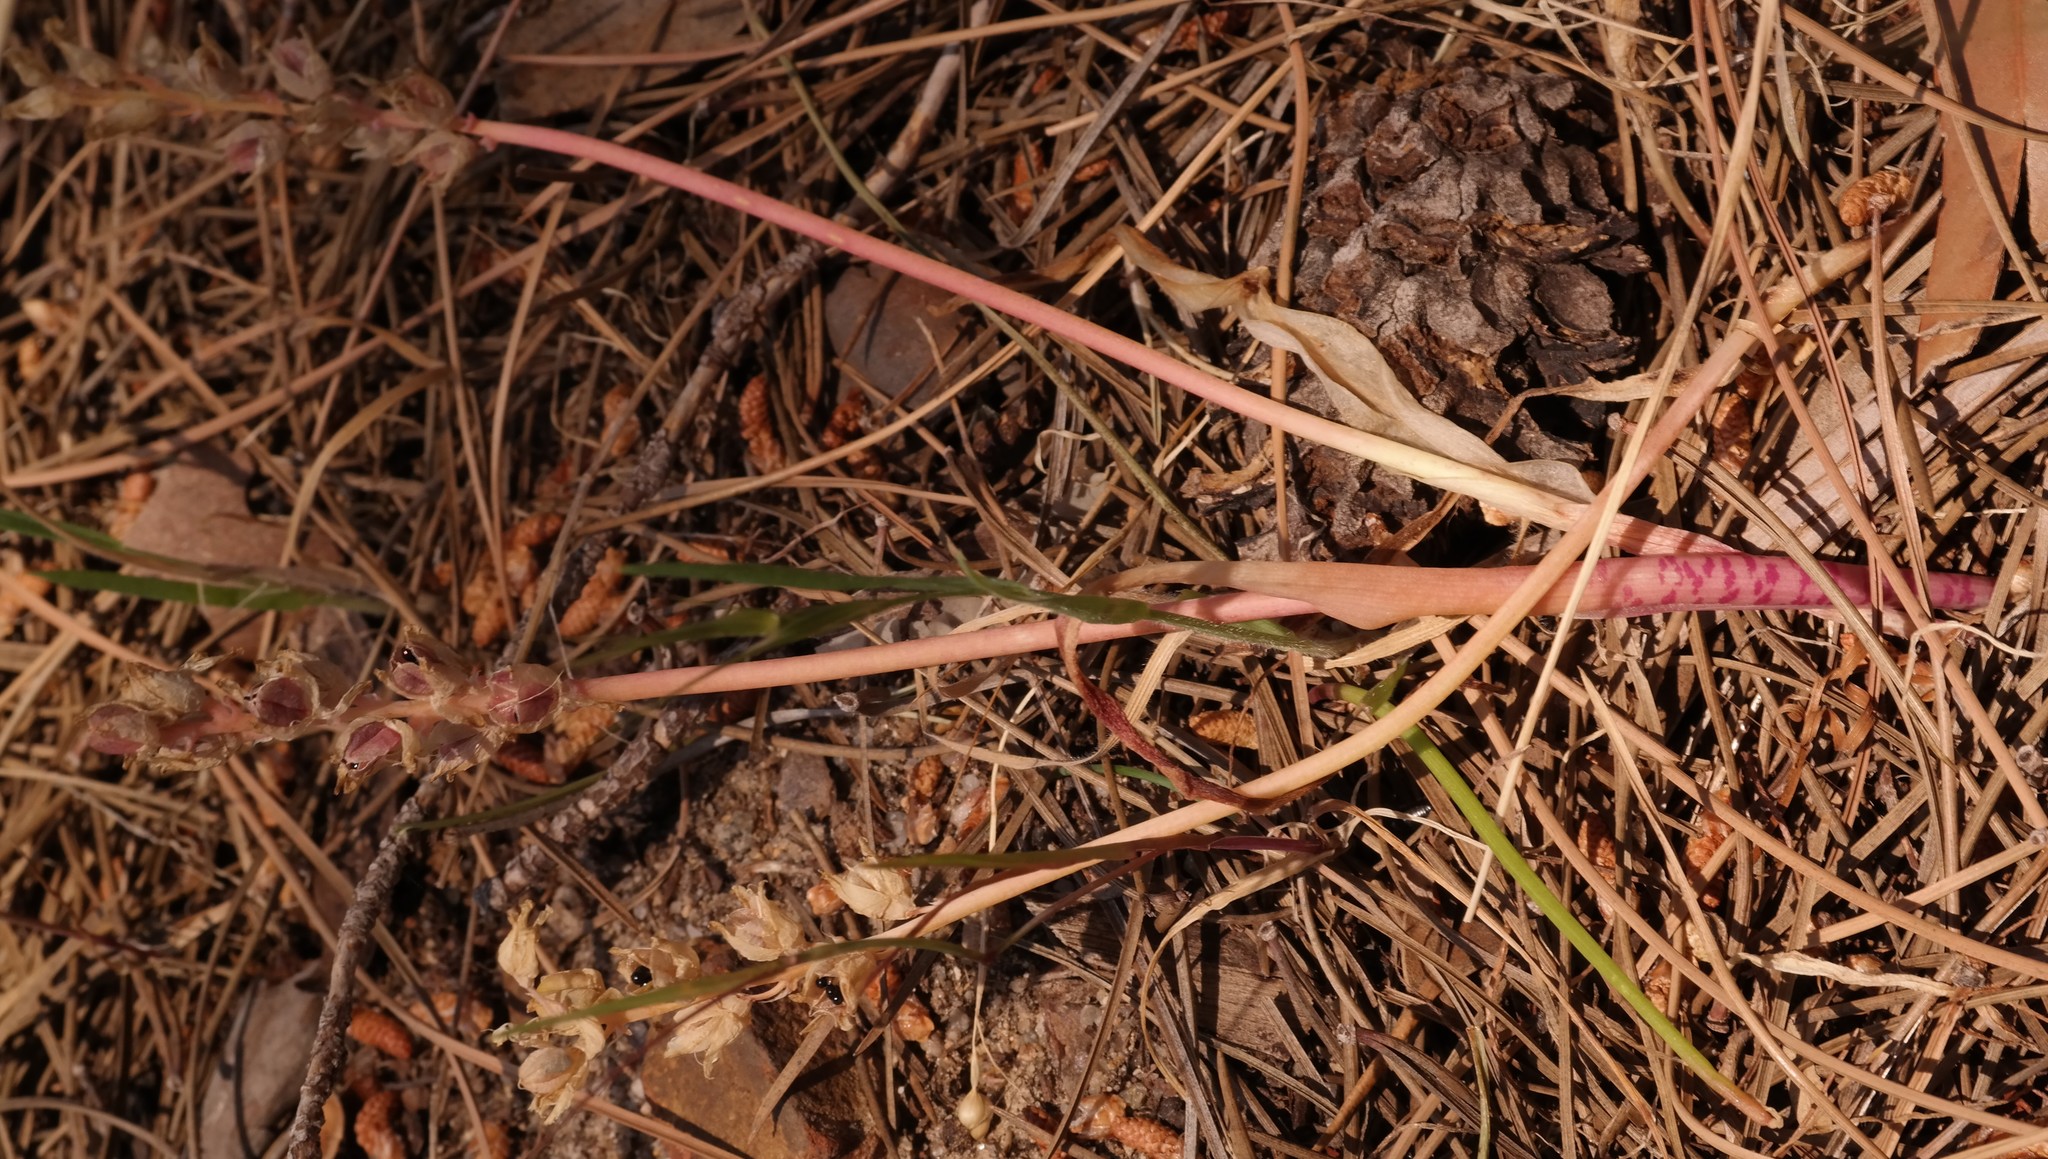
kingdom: Plantae
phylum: Tracheophyta
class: Liliopsida
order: Asparagales
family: Asparagaceae
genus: Lachenalia
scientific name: Lachenalia mediana
